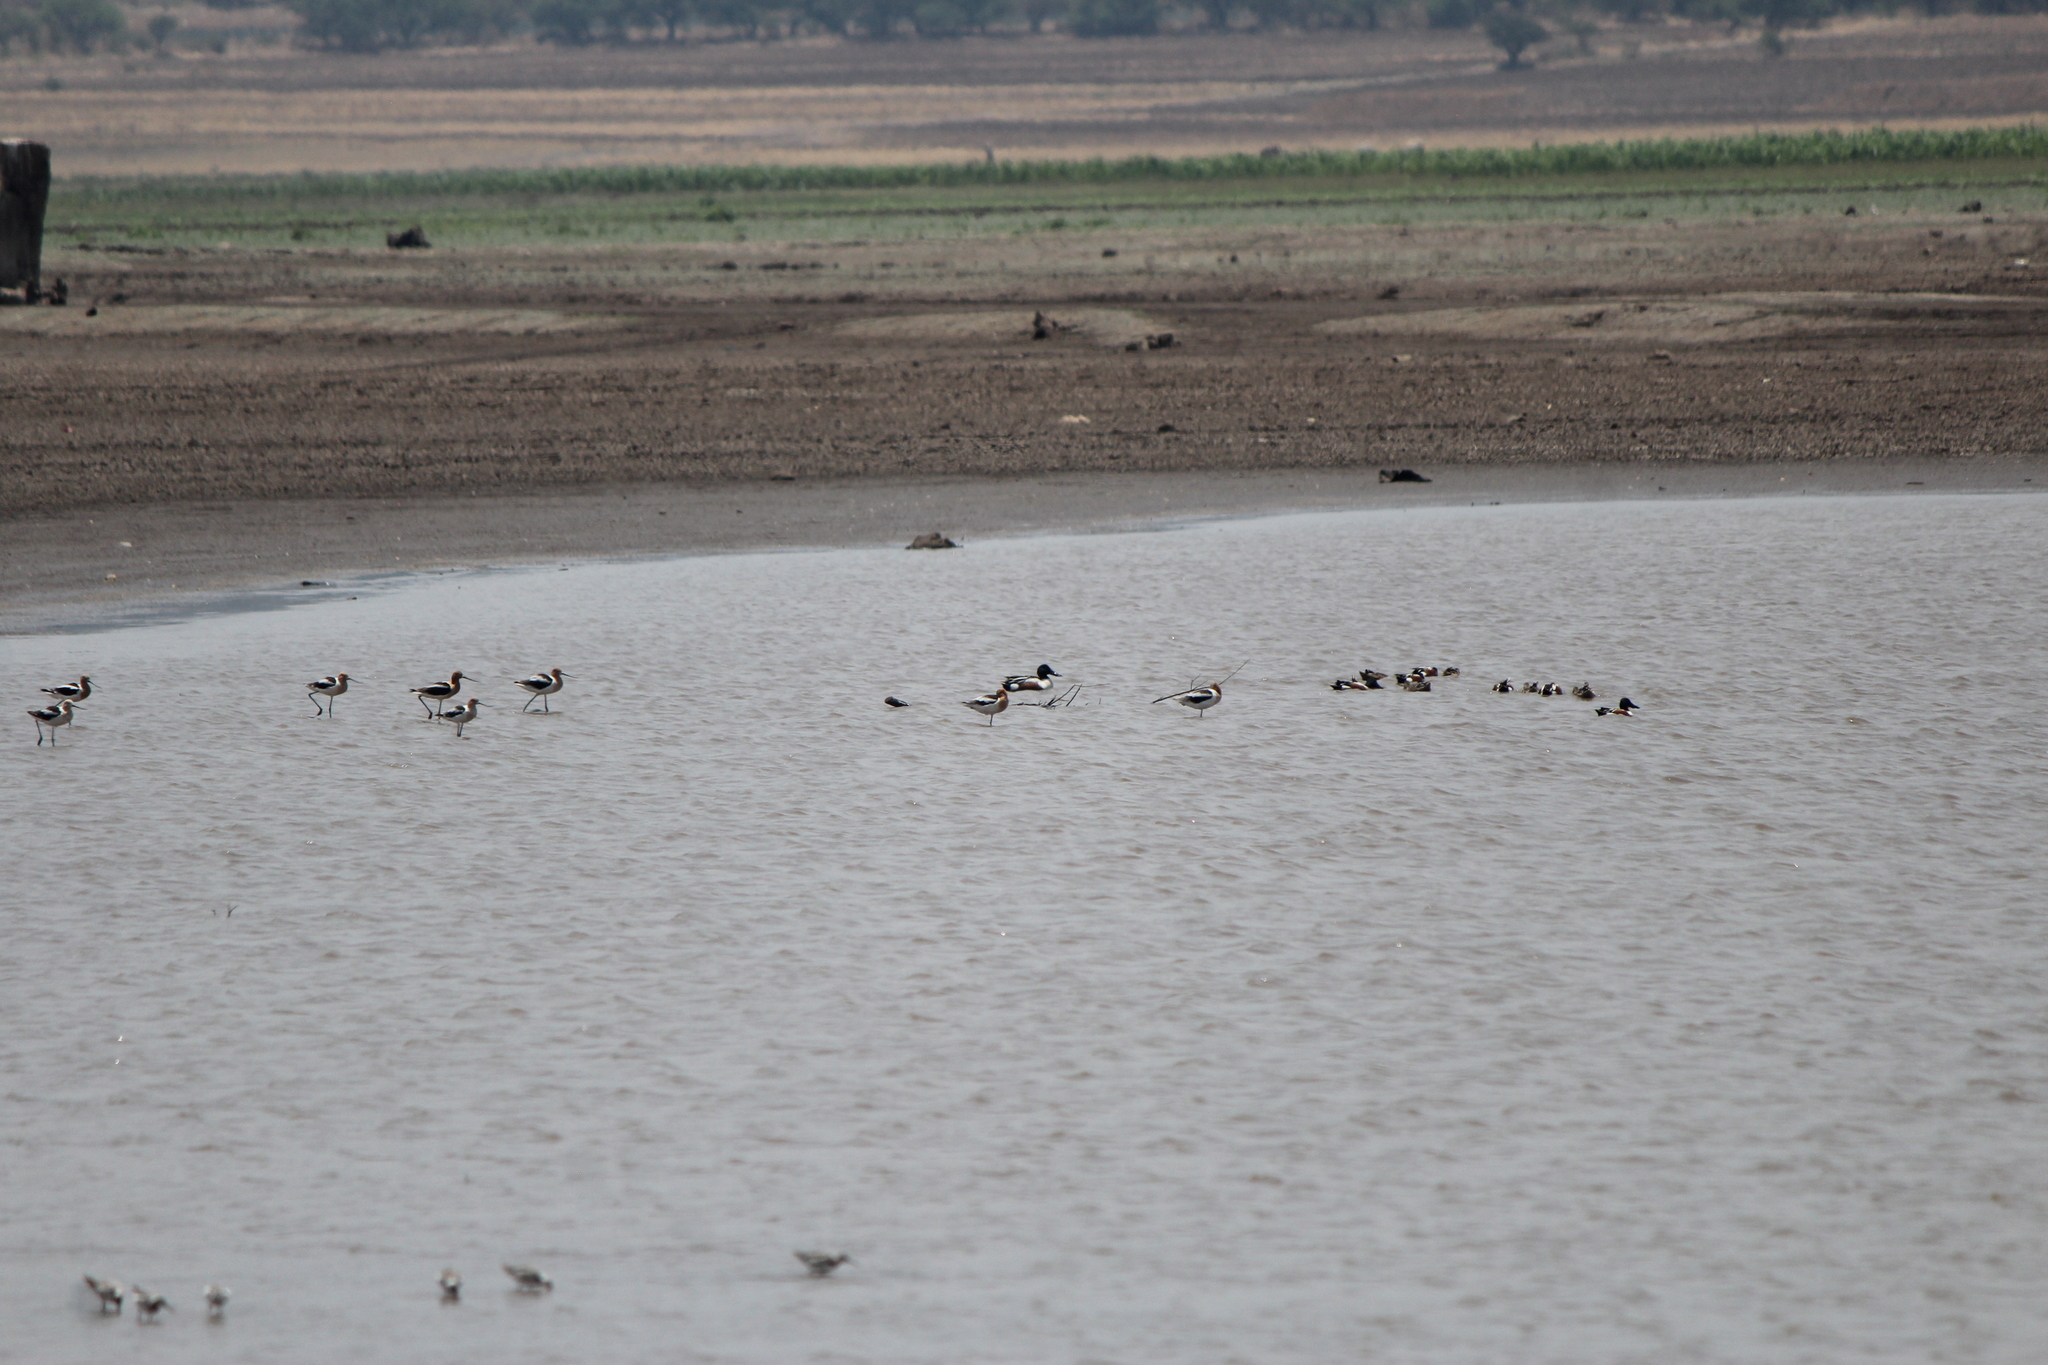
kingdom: Animalia
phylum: Chordata
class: Aves
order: Anseriformes
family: Anatidae
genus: Spatula
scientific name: Spatula clypeata
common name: Northern shoveler
